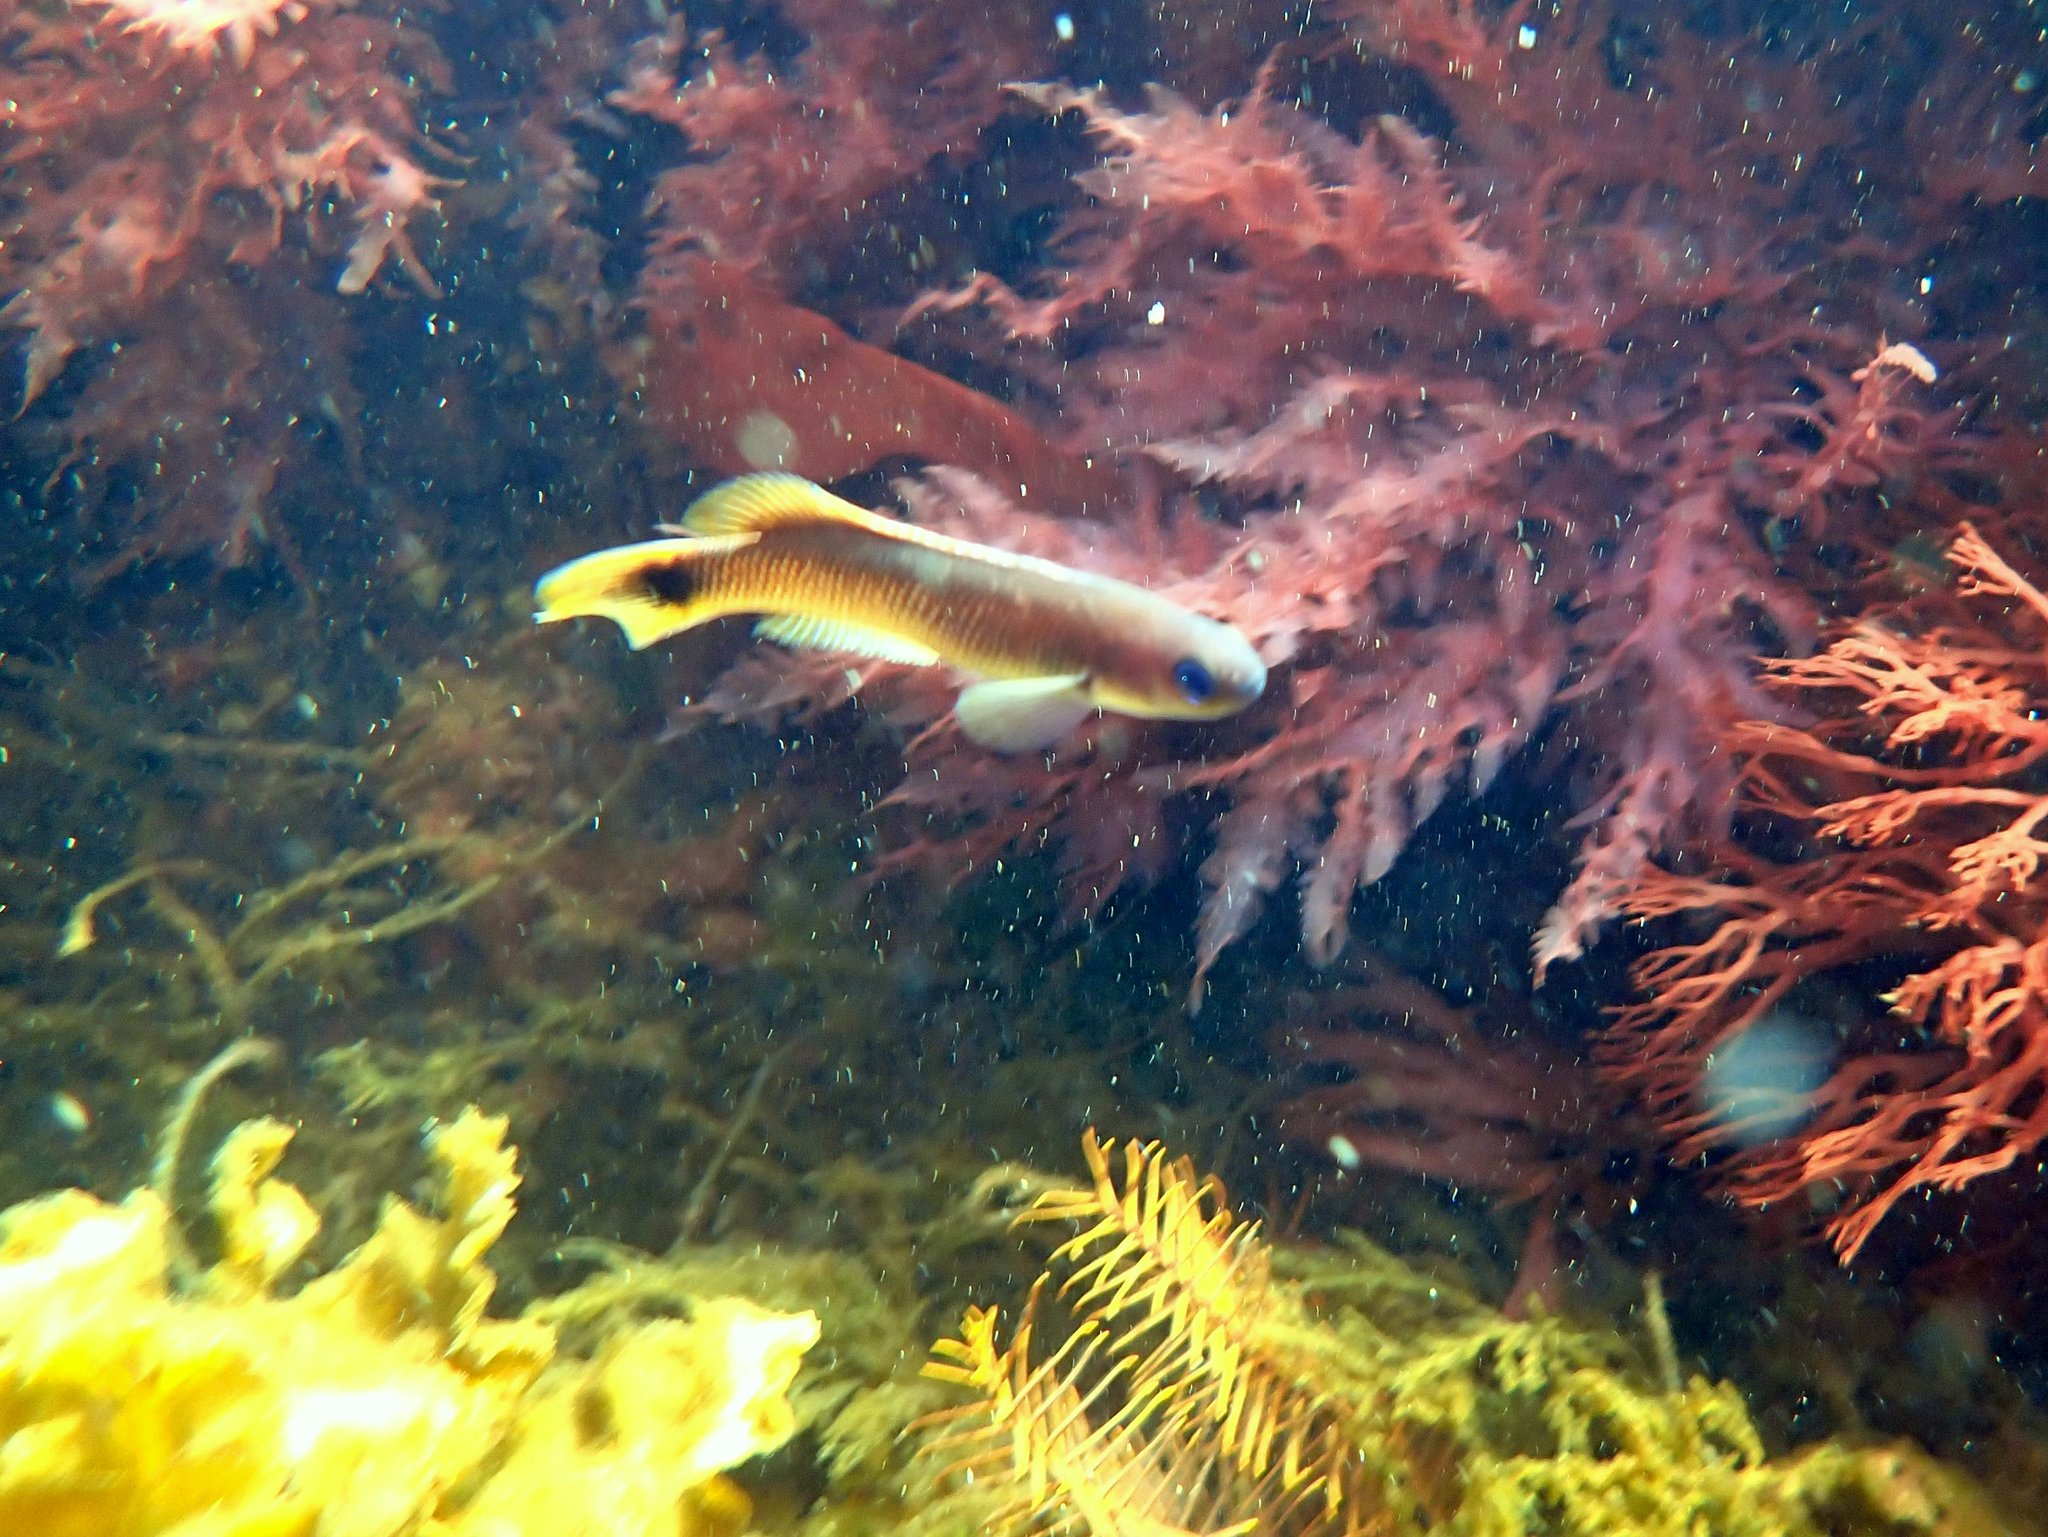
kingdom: Animalia
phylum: Chordata
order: Perciformes
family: Plesiopidae
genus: Trachinops
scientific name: Trachinops caudimaculatus
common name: Blotched-tailed trachinops
